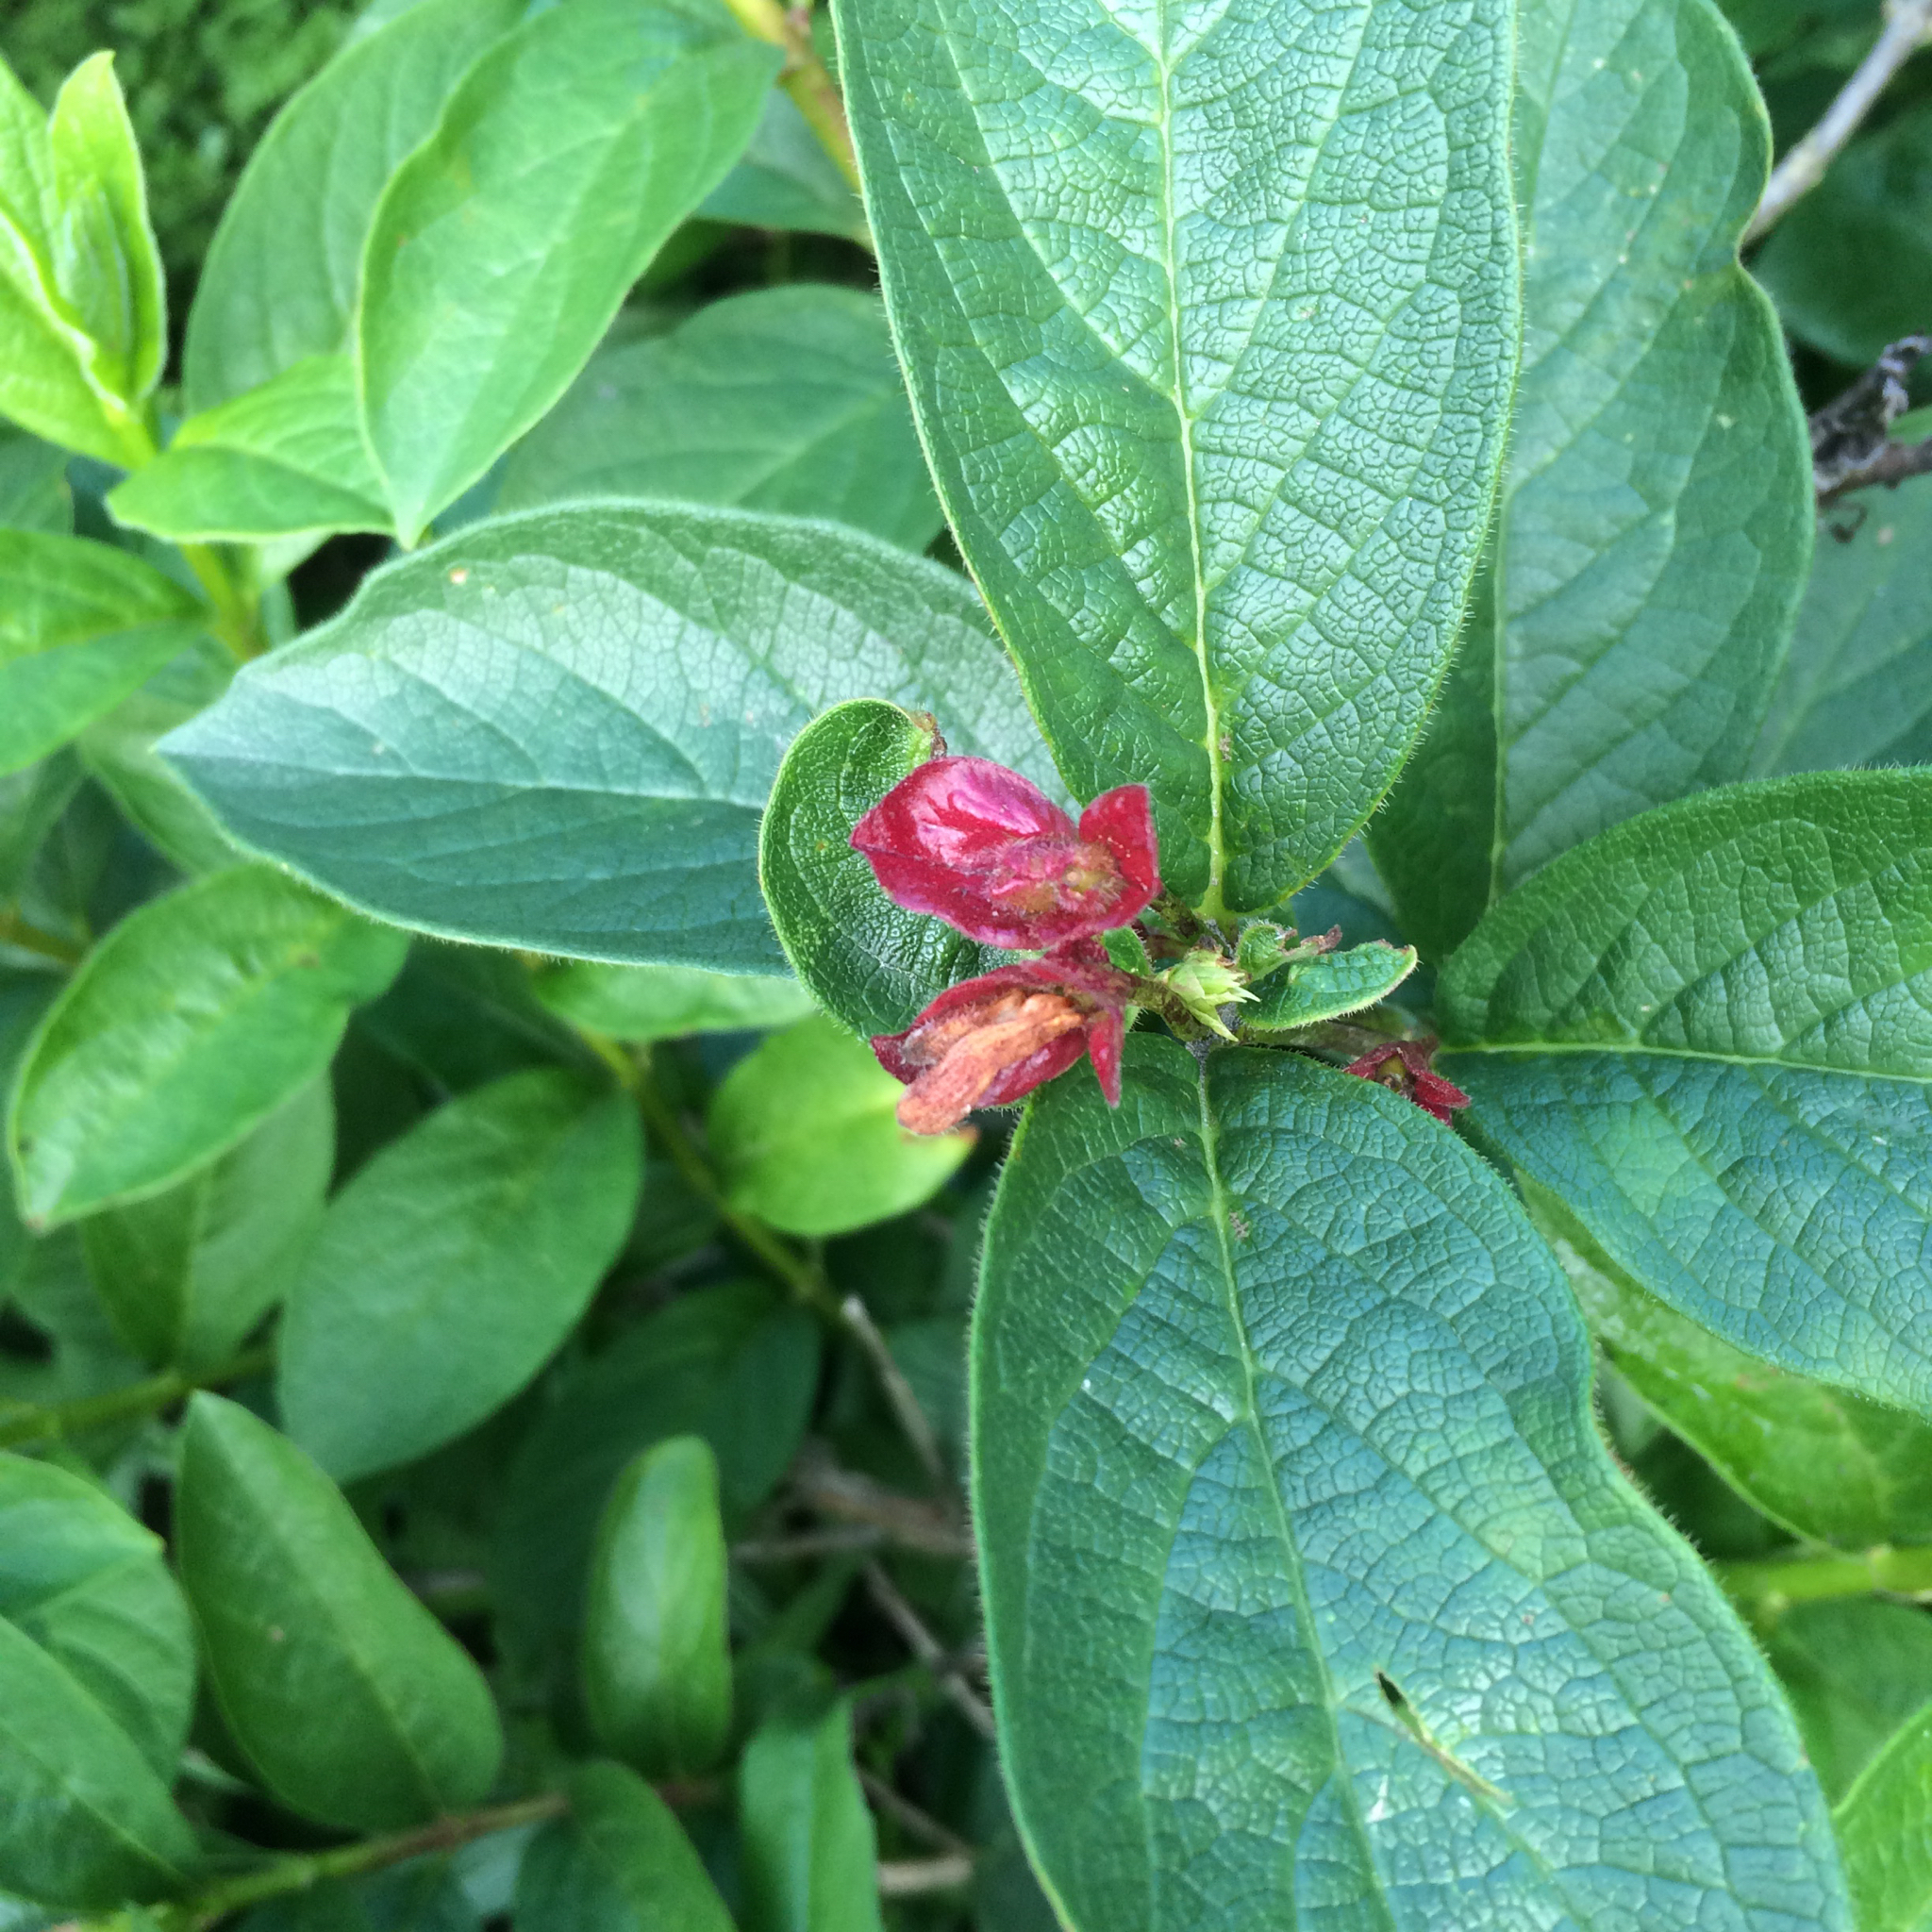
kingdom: Plantae
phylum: Tracheophyta
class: Magnoliopsida
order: Dipsacales
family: Caprifoliaceae
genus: Lonicera
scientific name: Lonicera involucrata
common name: Californian honeysuckle
